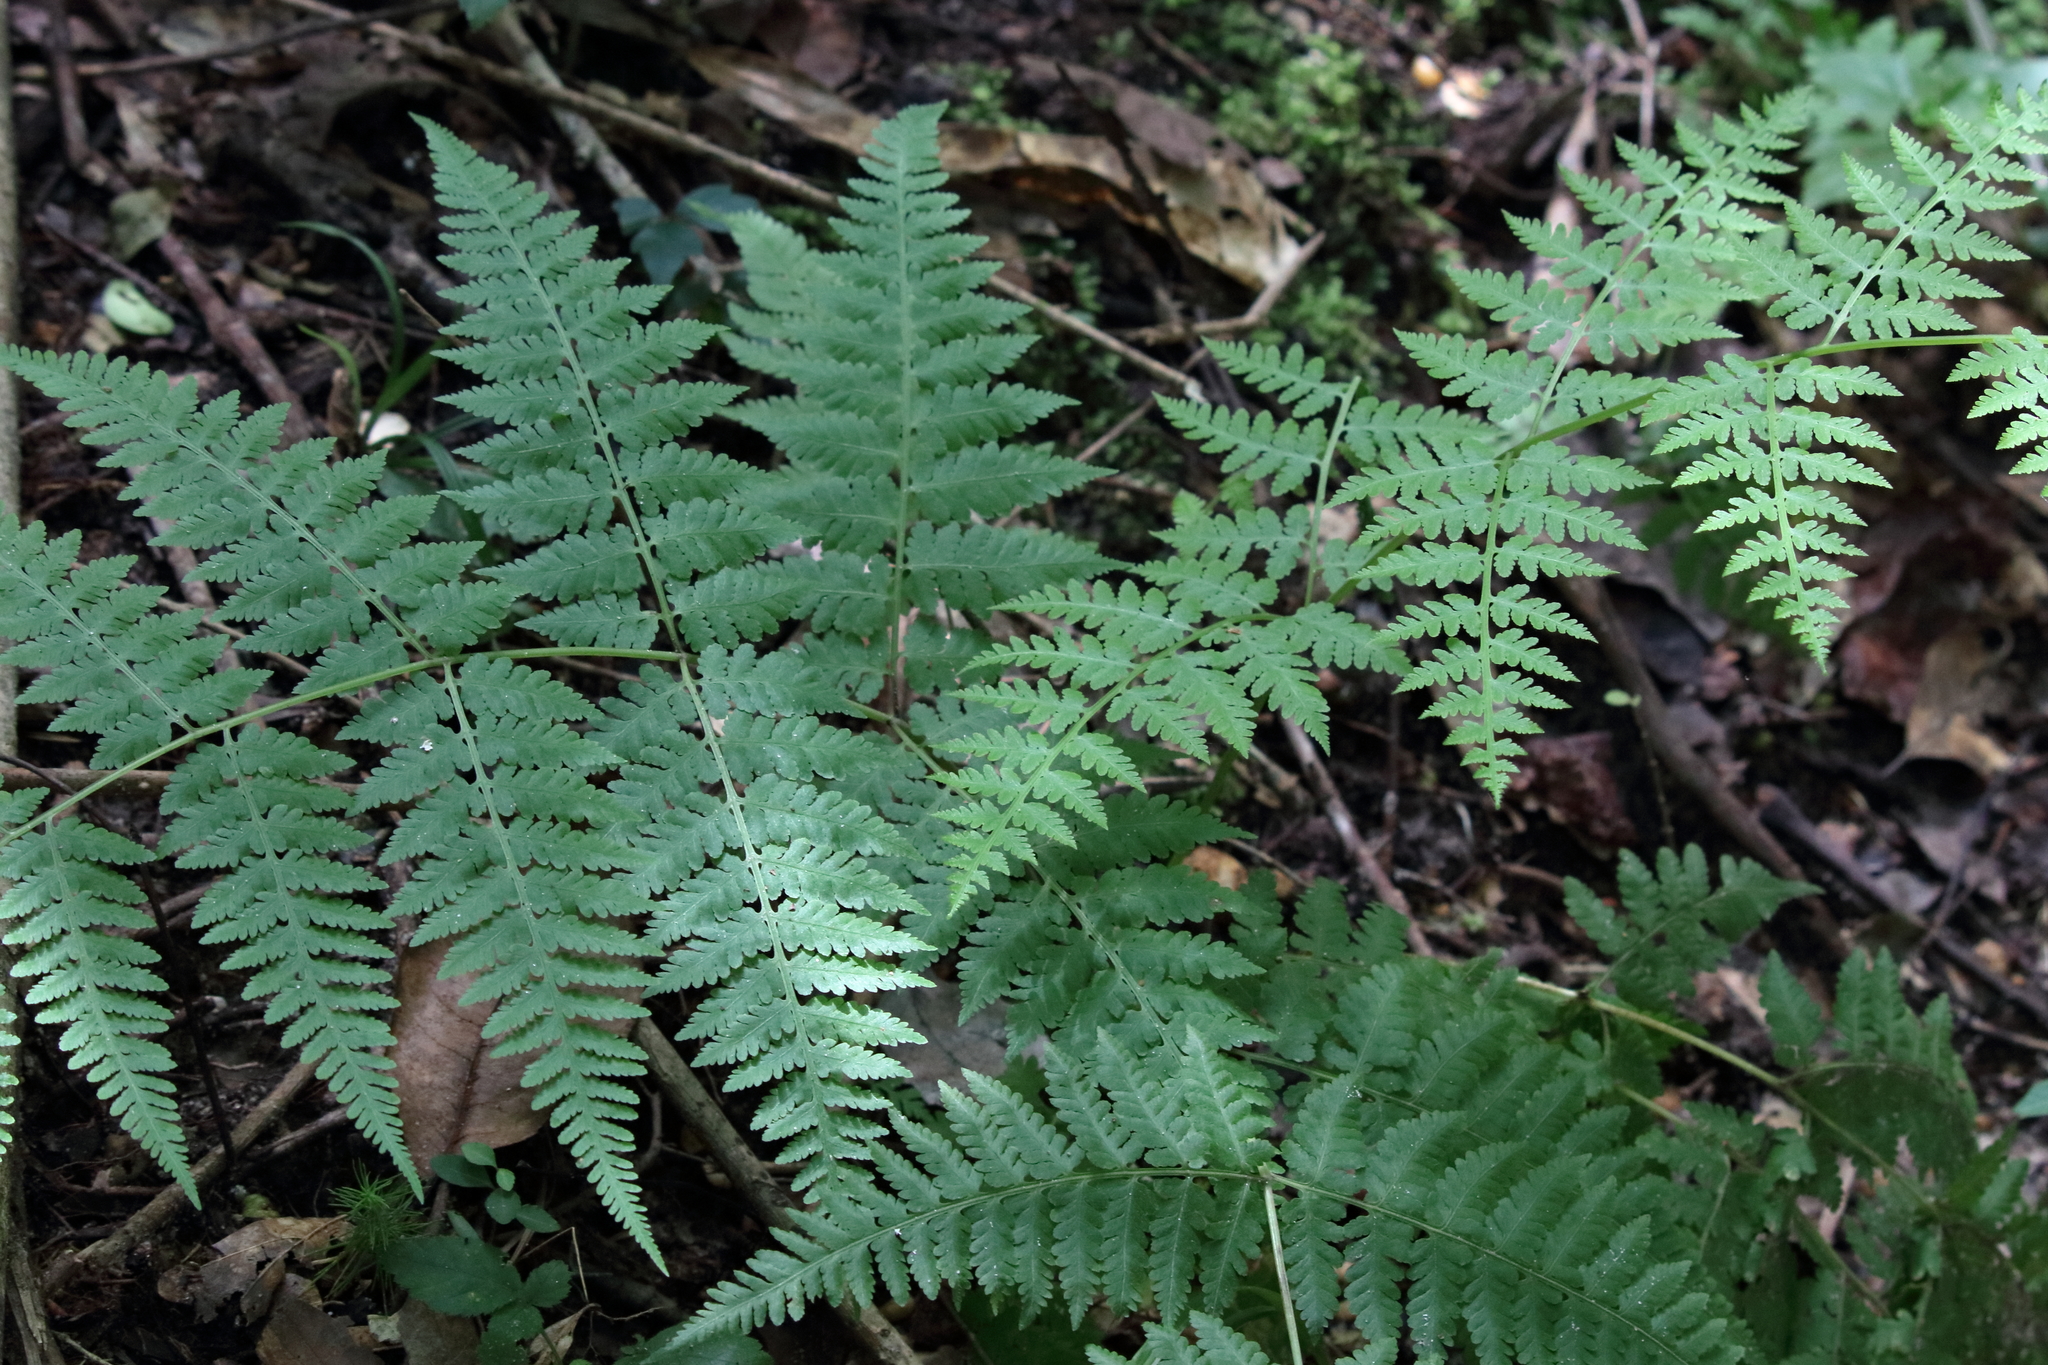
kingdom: Plantae
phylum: Tracheophyta
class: Polypodiopsida
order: Polypodiales
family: Thelypteridaceae
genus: Macrothelypteris
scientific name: Macrothelypteris torresiana
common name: Swordfern
